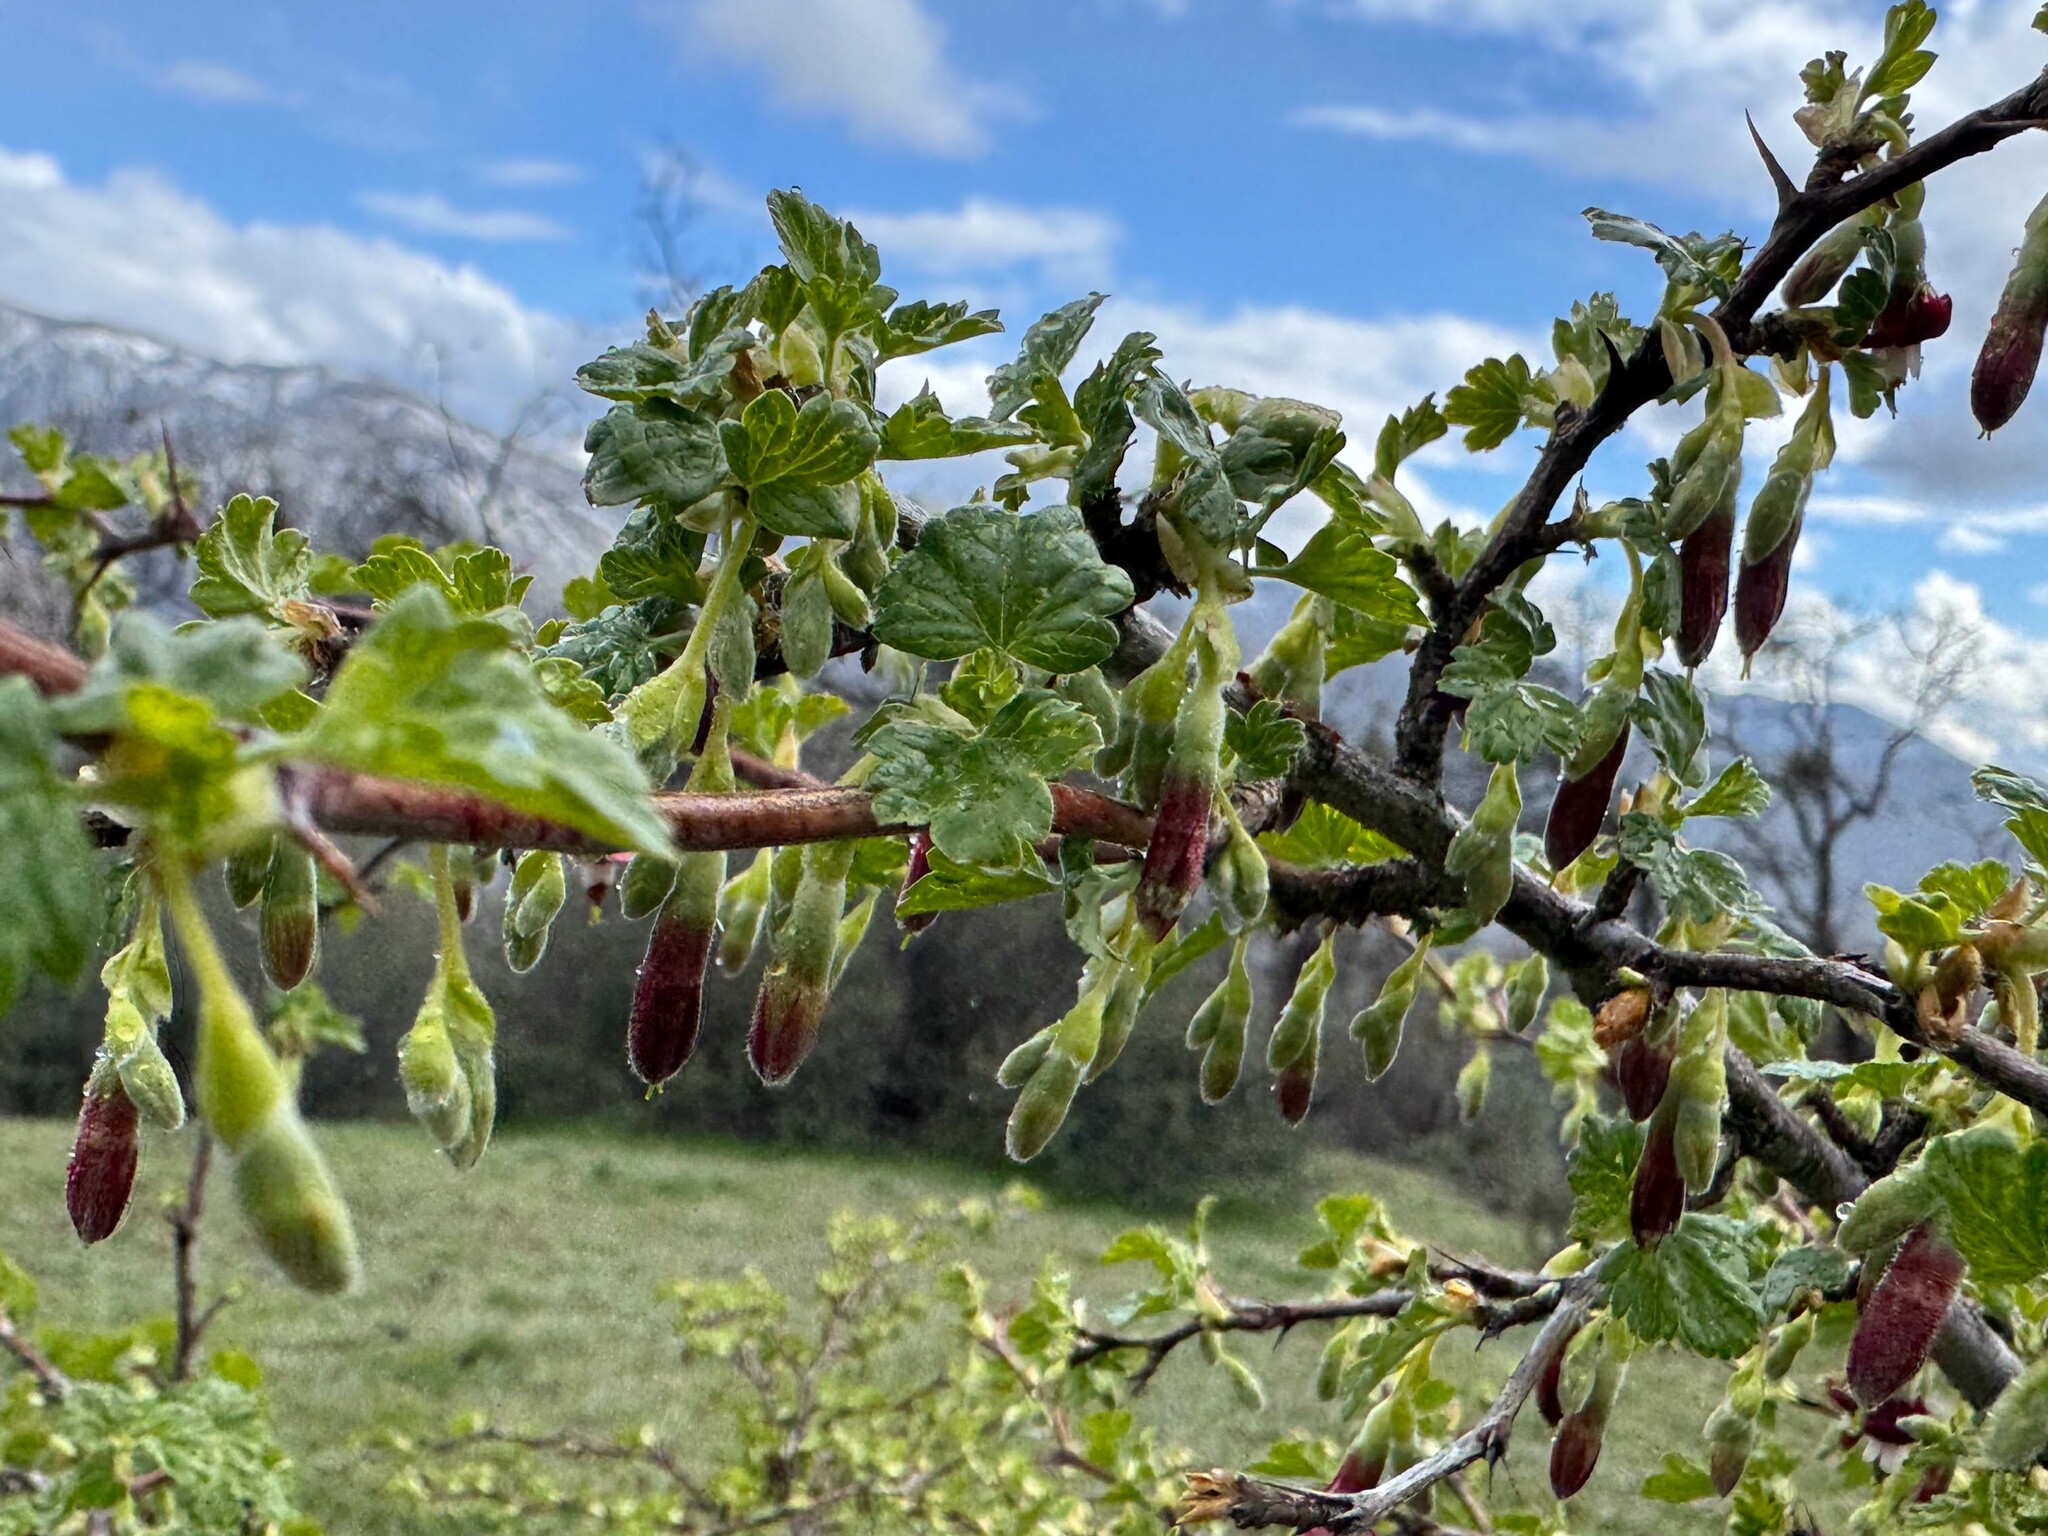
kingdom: Plantae
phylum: Tracheophyta
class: Magnoliopsida
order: Saxifragales
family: Grossulariaceae
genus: Ribes
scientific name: Ribes roezlii
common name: Sierra gooseberry
